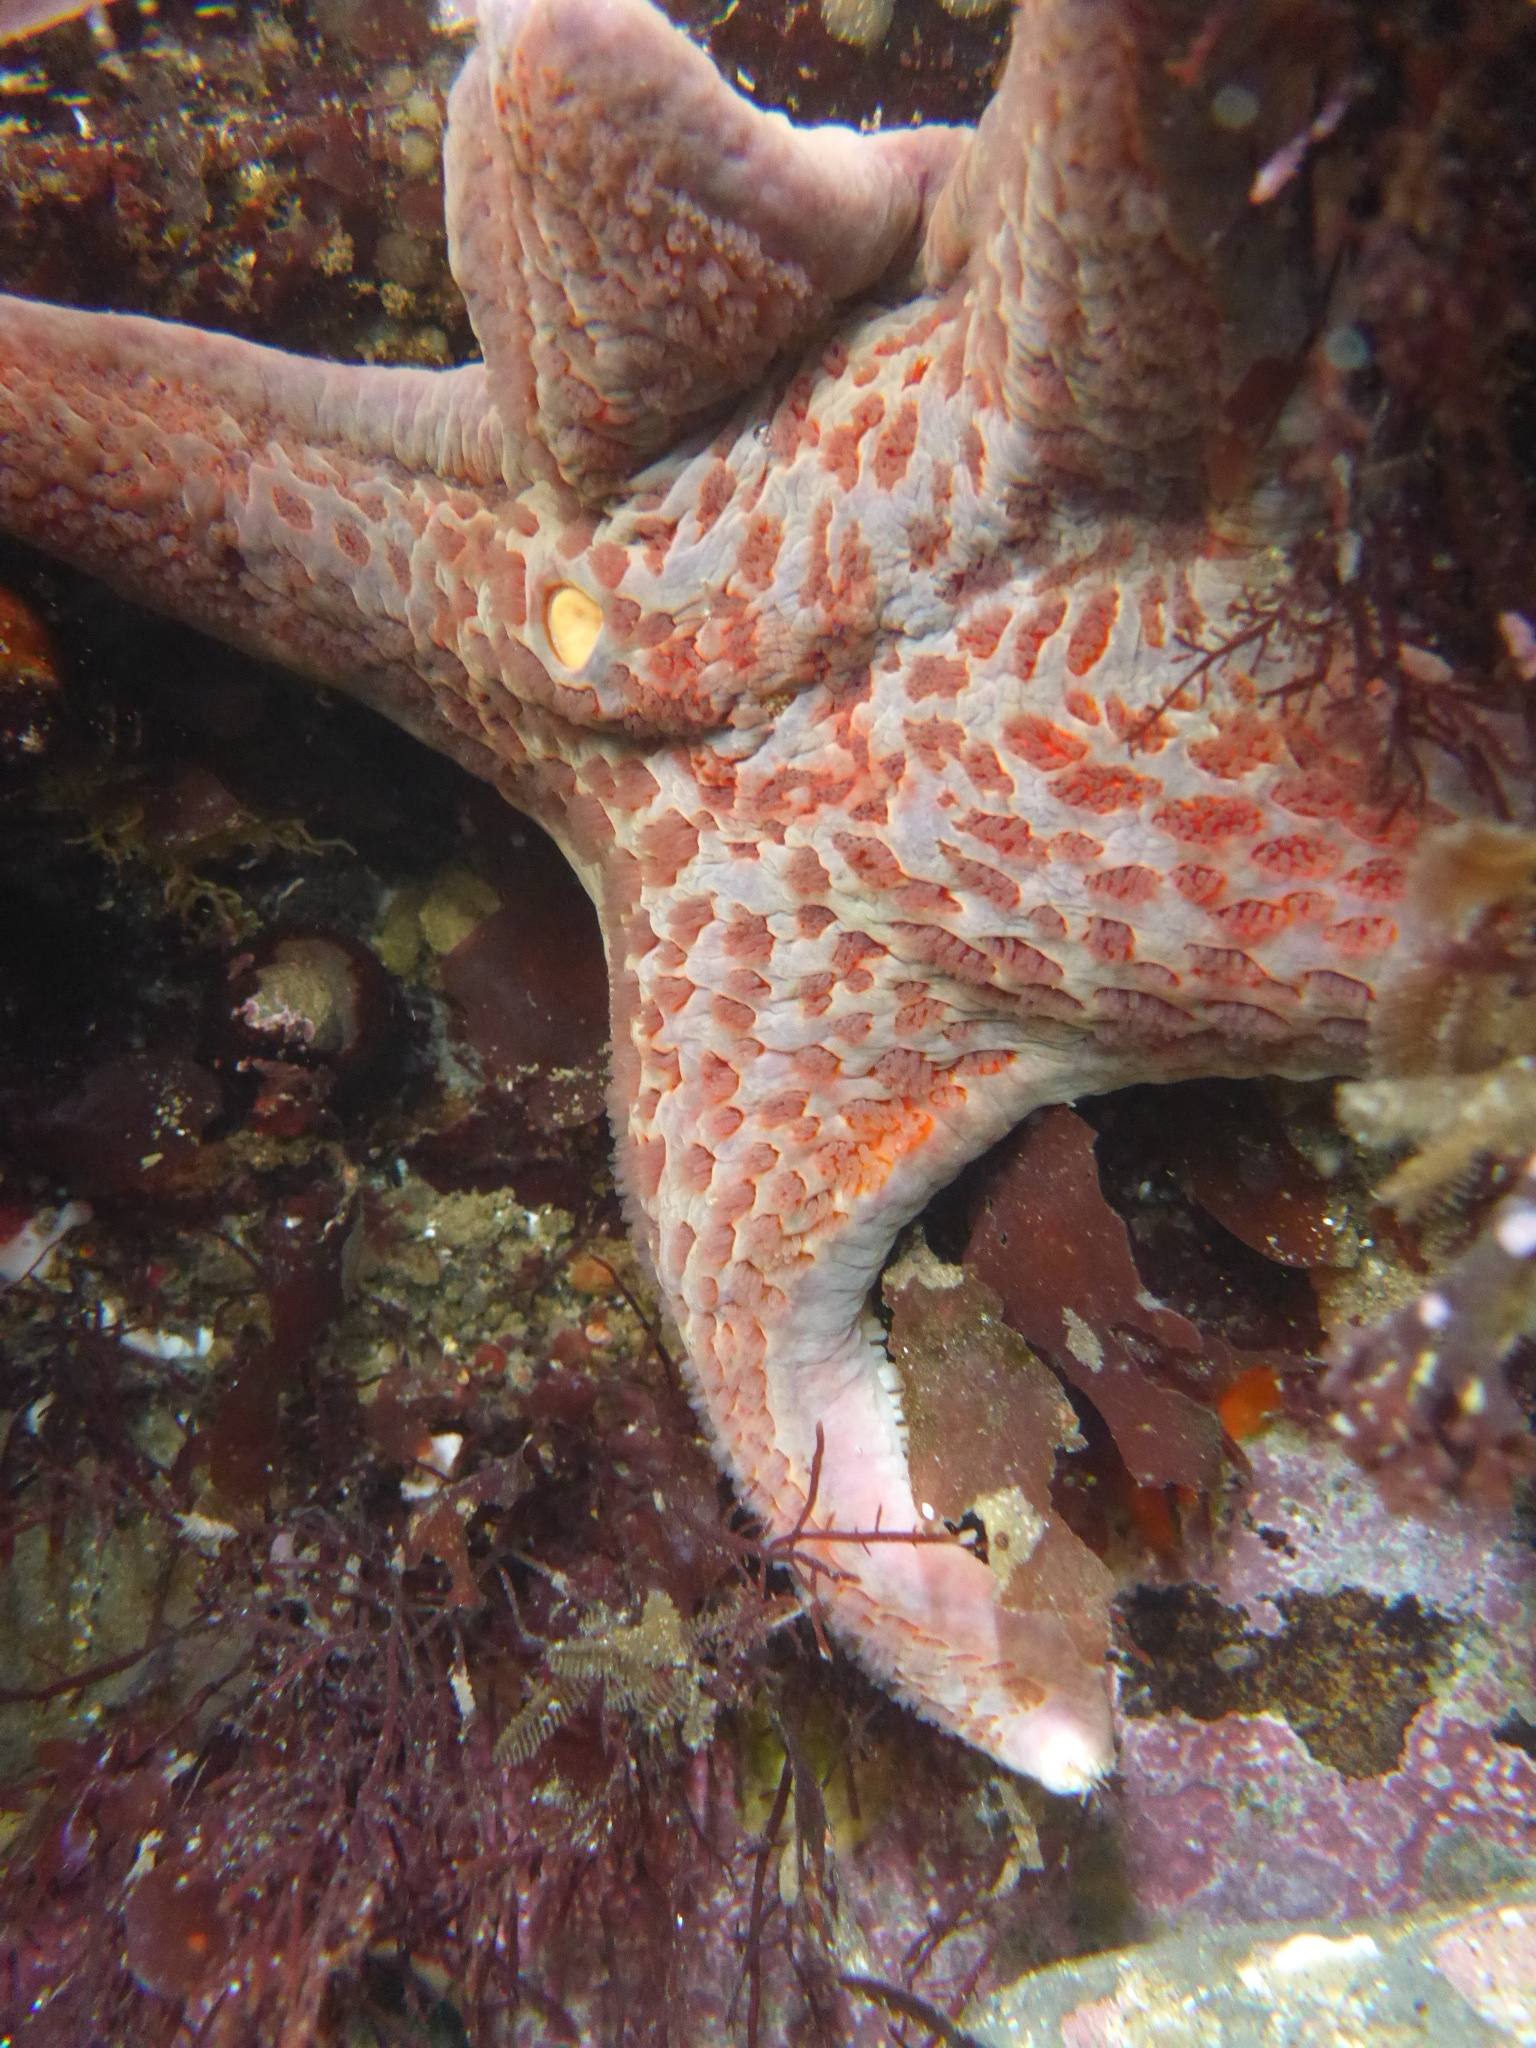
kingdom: Animalia
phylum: Echinodermata
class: Asteroidea
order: Valvatida
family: Asteropseidae
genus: Dermasterias
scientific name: Dermasterias imbricata
